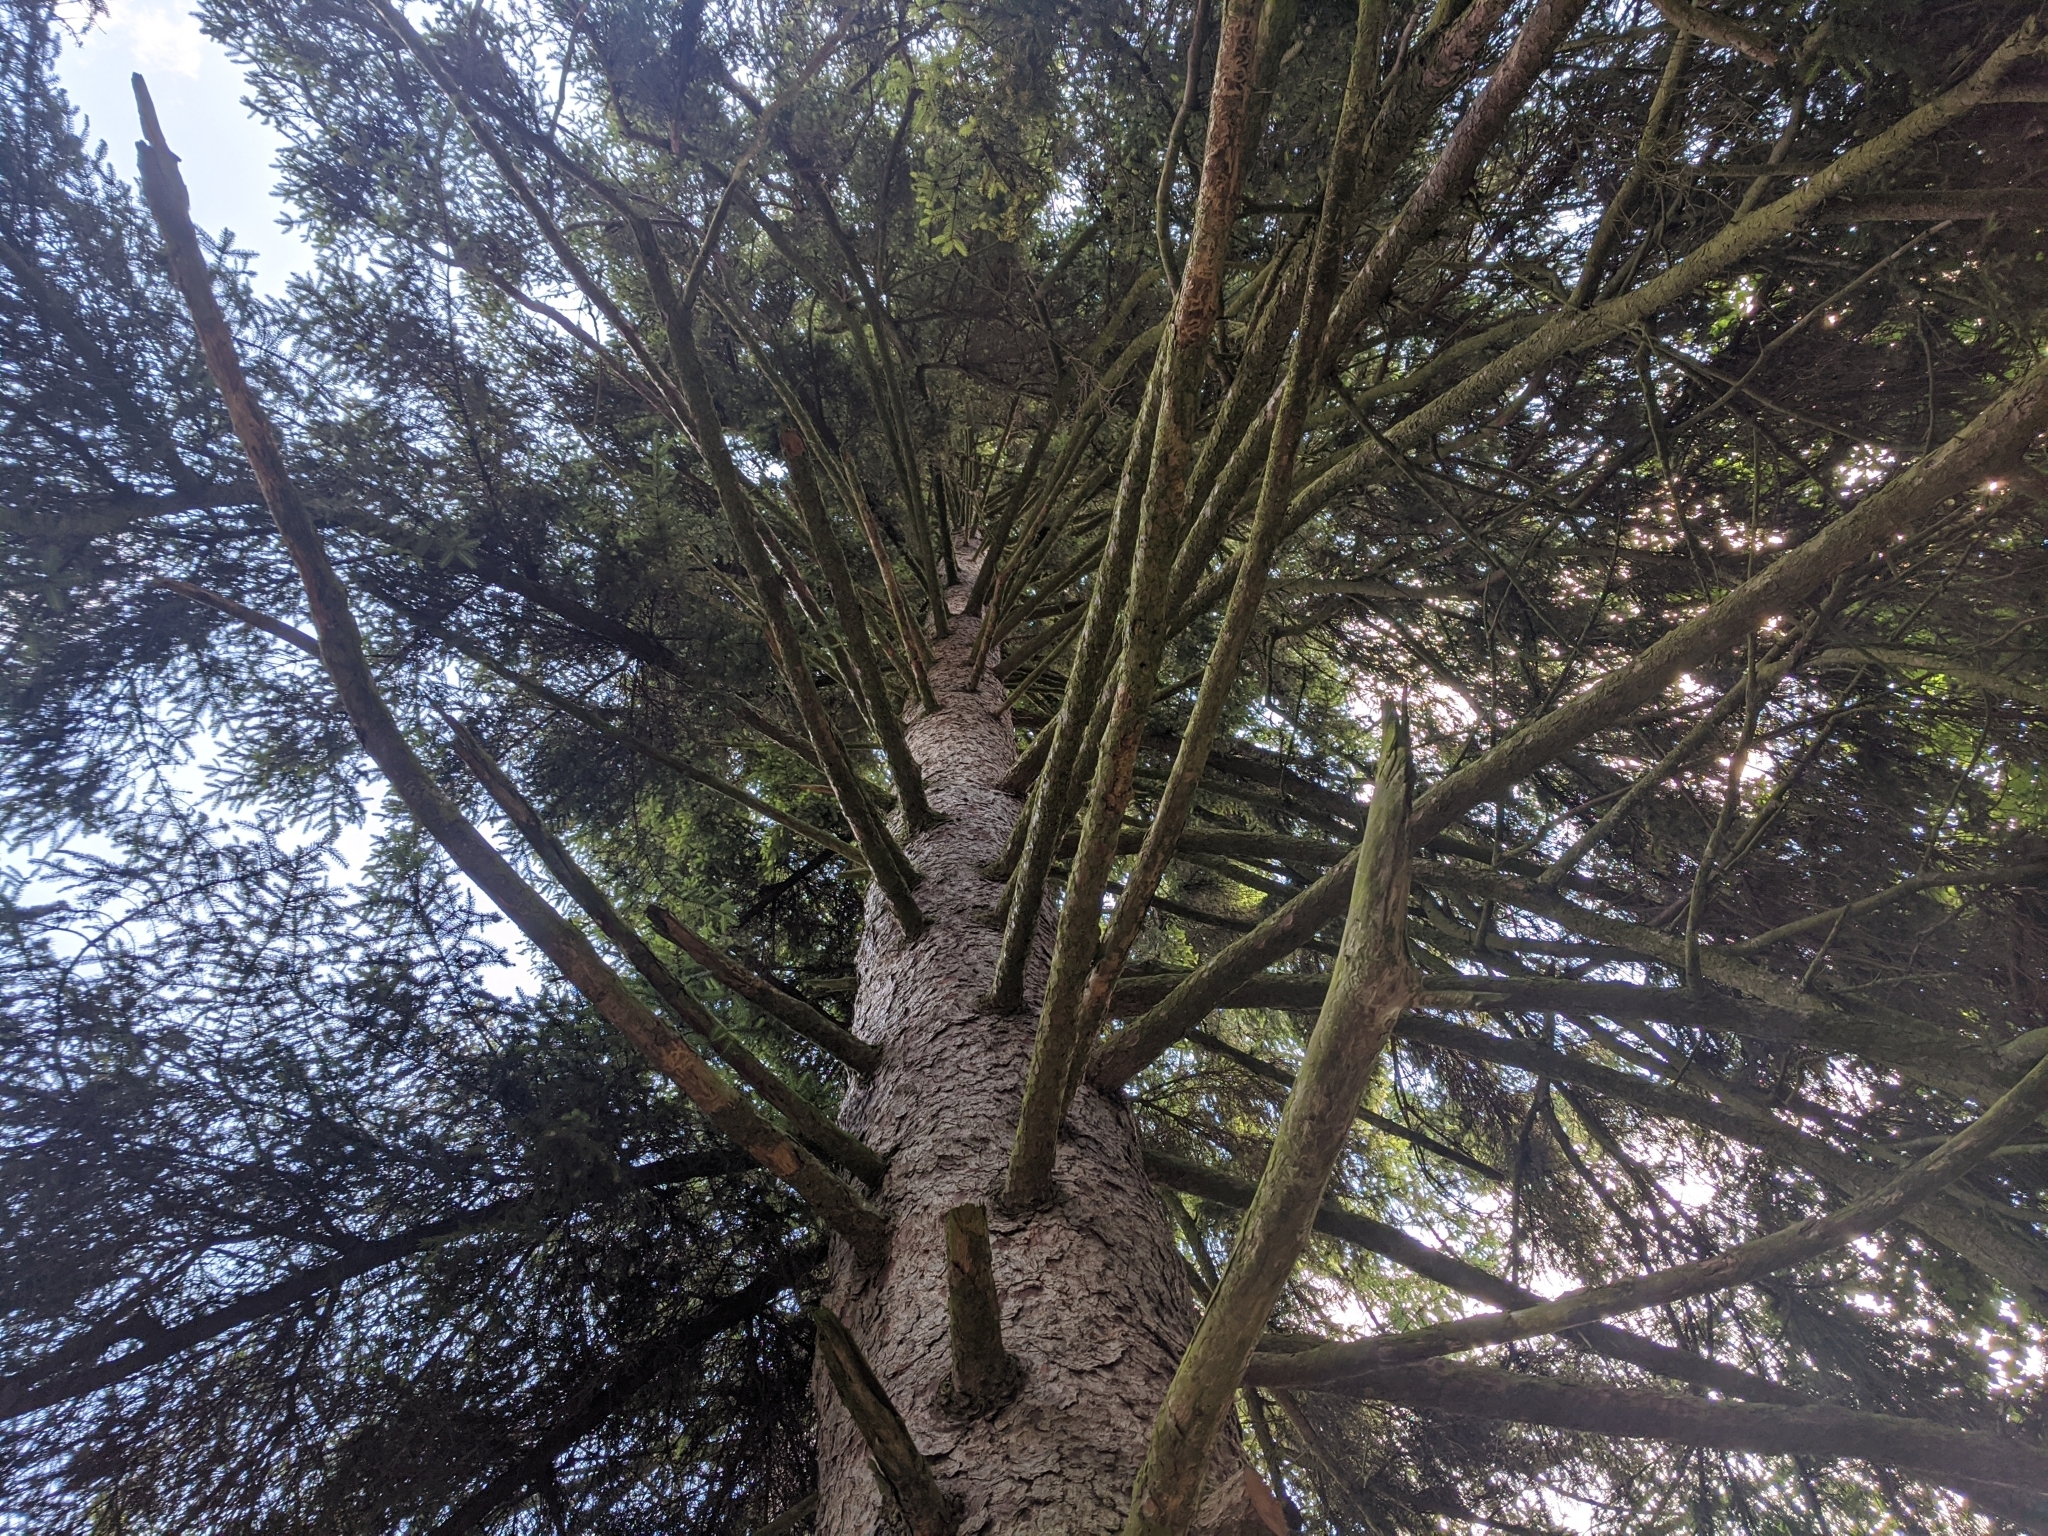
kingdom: Plantae
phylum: Tracheophyta
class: Pinopsida
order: Pinales
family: Pinaceae
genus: Picea
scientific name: Picea abies
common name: Norway spruce
